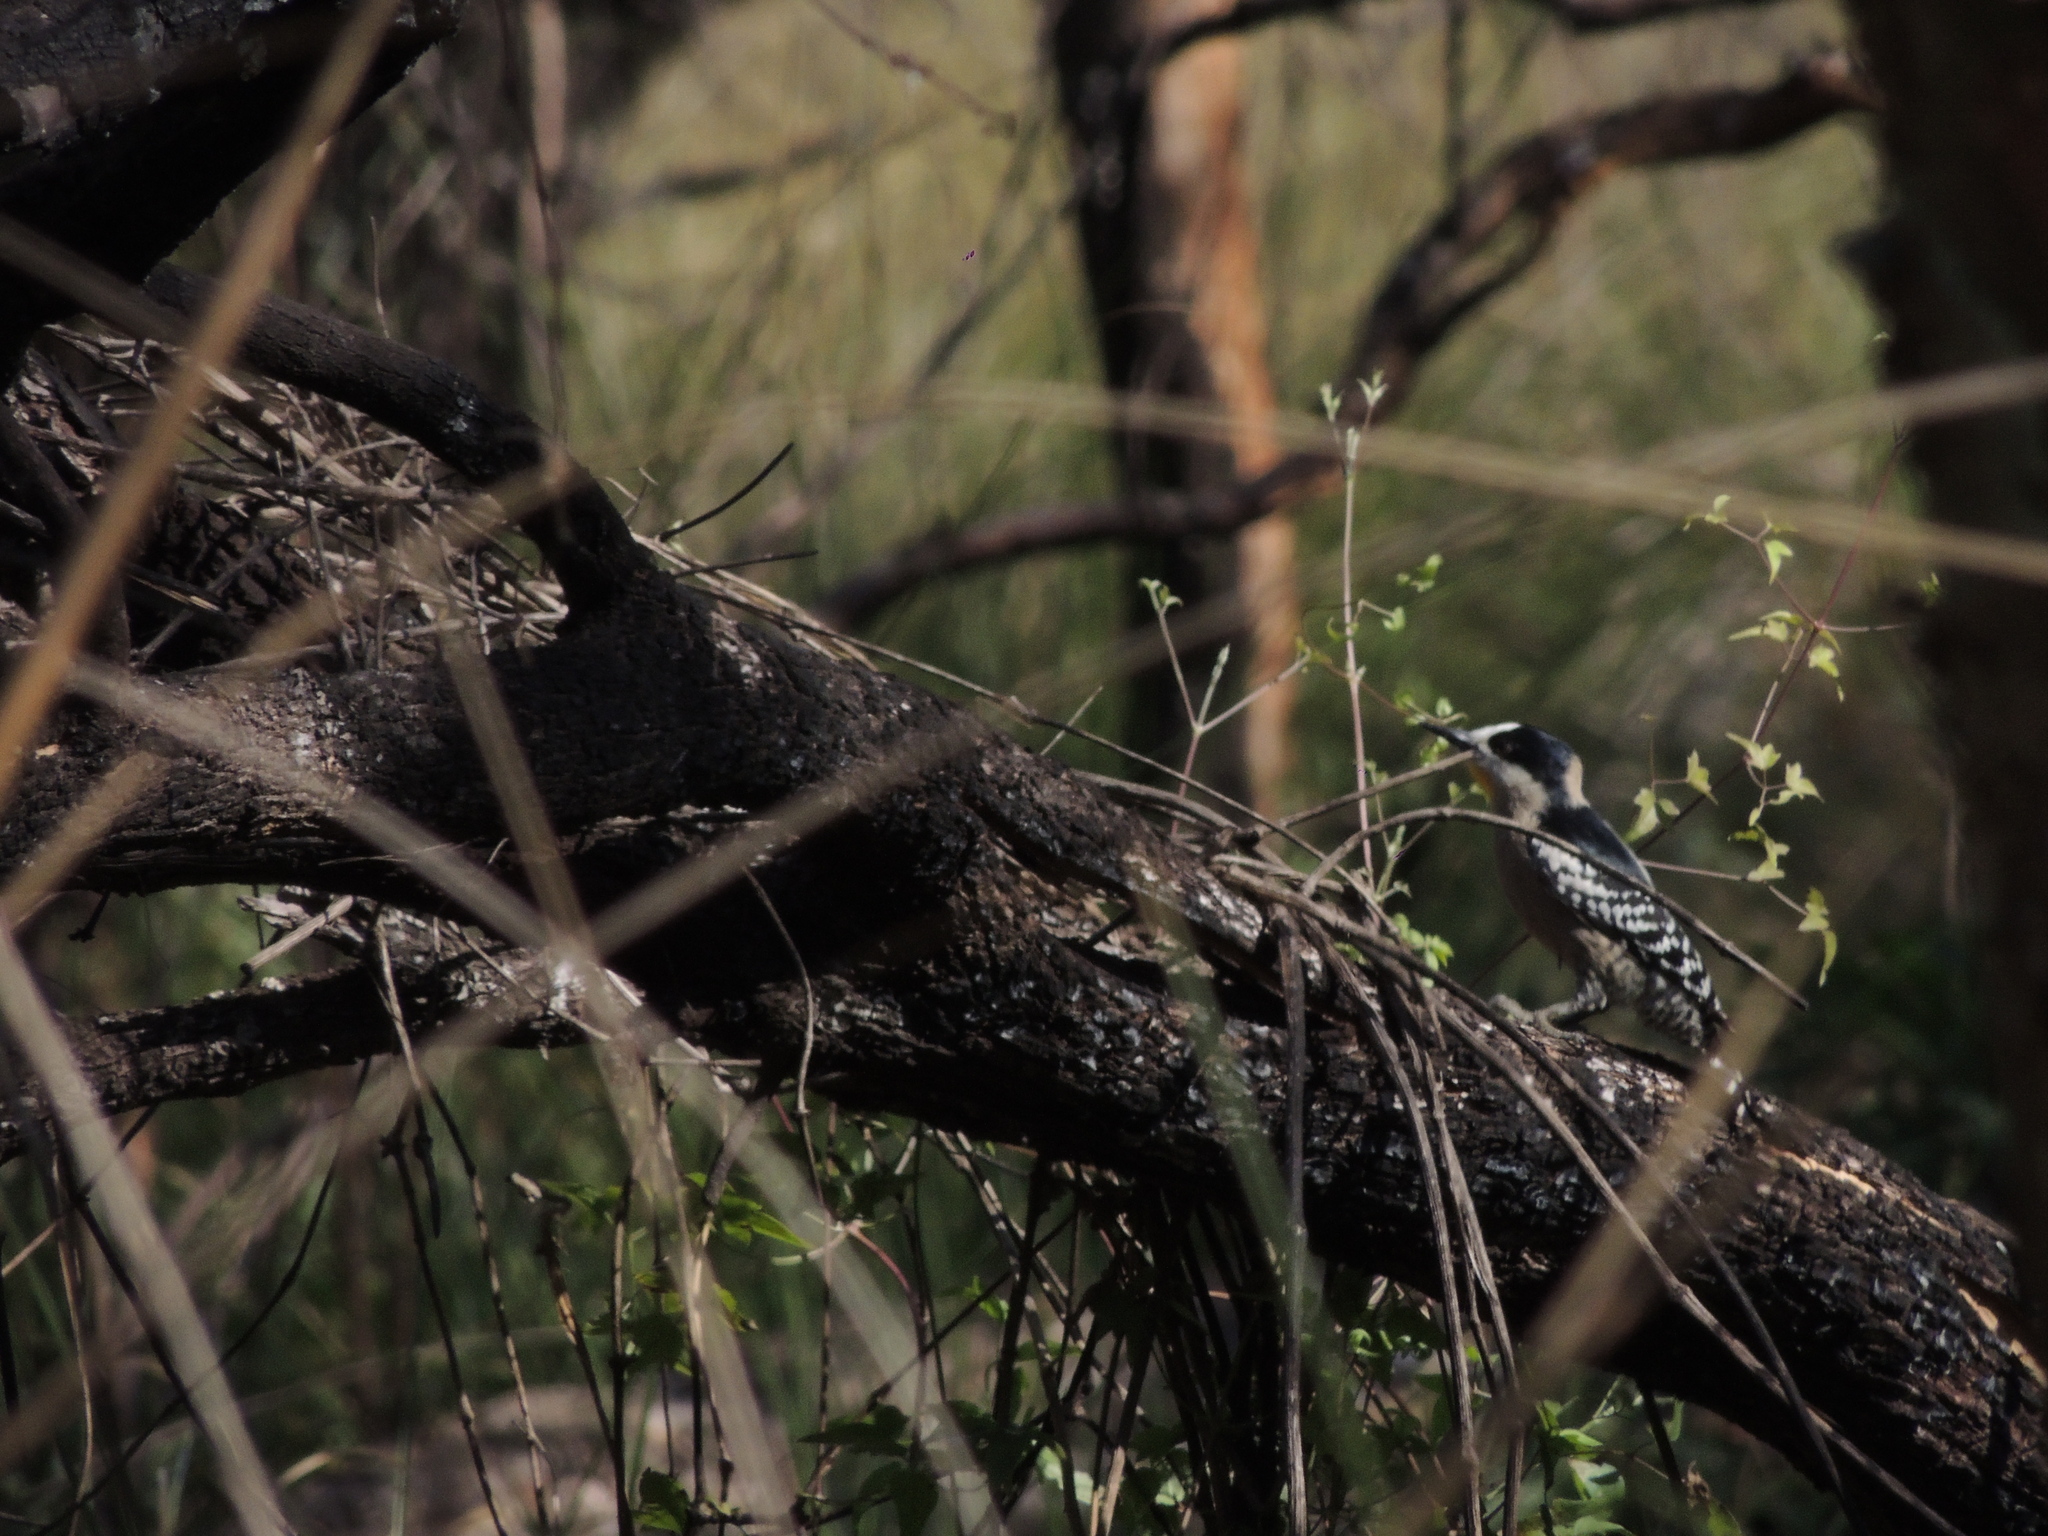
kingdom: Animalia
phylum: Chordata
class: Aves
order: Piciformes
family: Picidae
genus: Melanerpes
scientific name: Melanerpes cactorum
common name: White-fronted woodpecker
